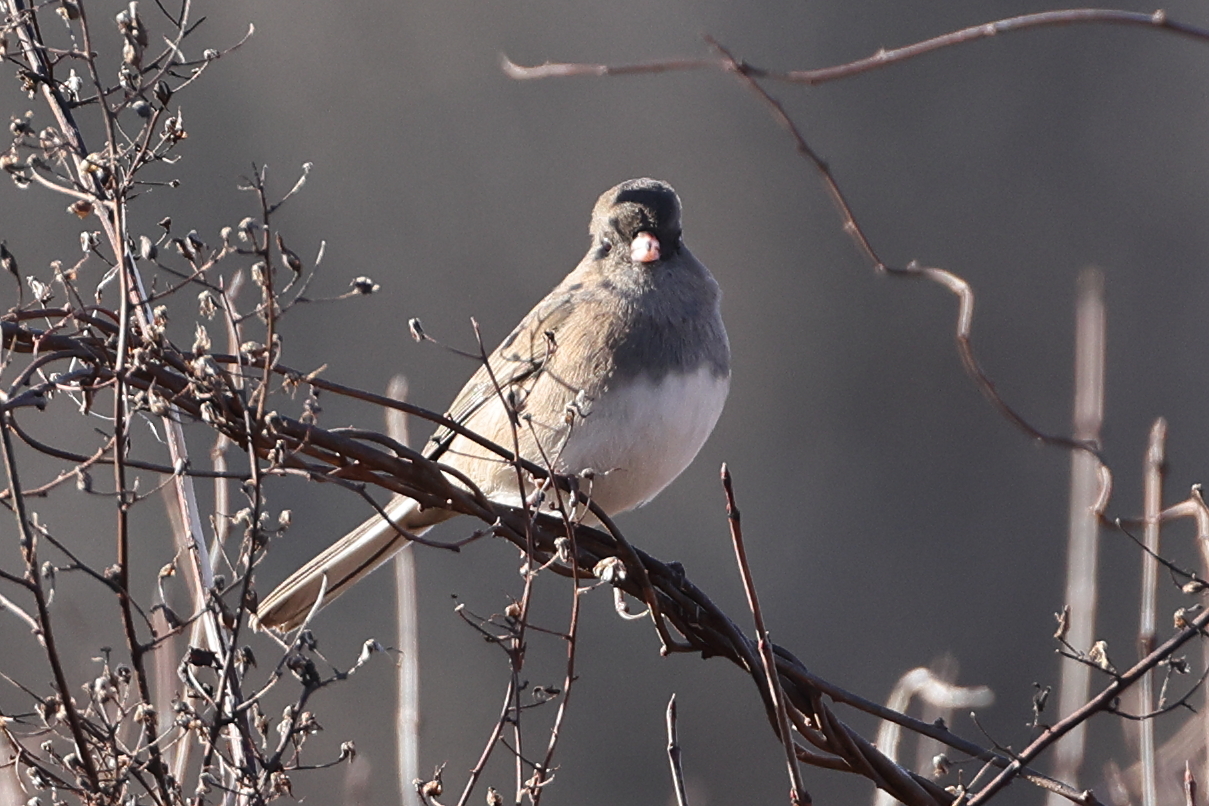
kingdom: Animalia
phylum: Chordata
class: Aves
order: Passeriformes
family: Passerellidae
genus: Junco
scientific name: Junco hyemalis
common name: Dark-eyed junco
